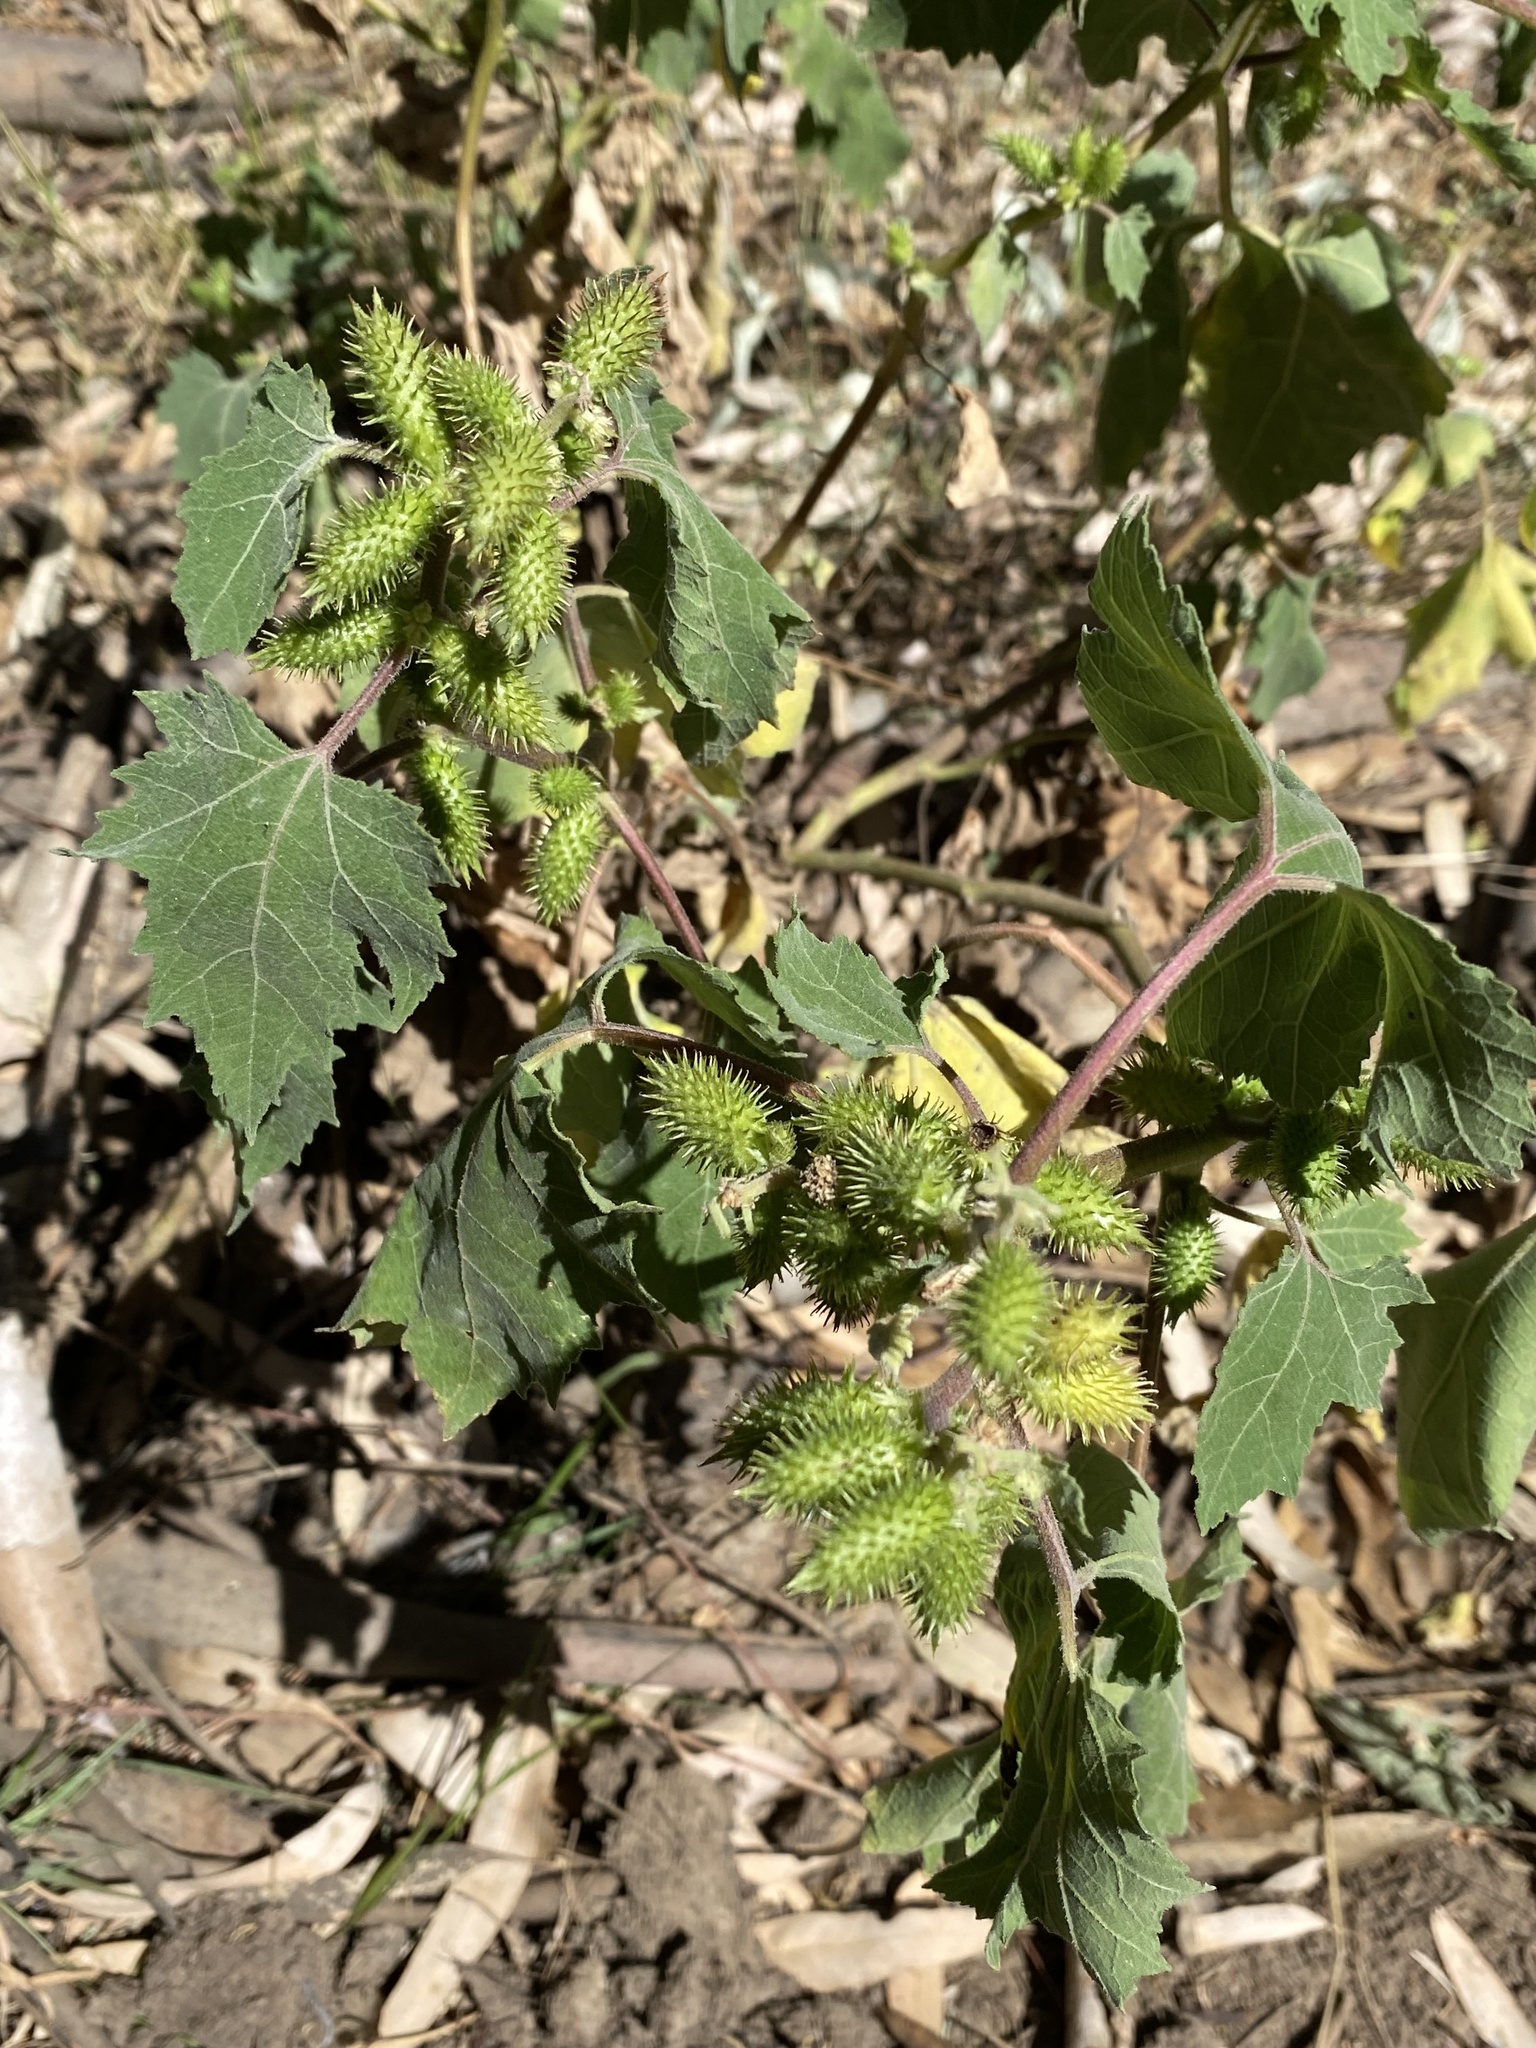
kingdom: Plantae
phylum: Tracheophyta
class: Magnoliopsida
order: Asterales
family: Asteraceae
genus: Xanthium
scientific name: Xanthium strumarium
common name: Rough cocklebur
